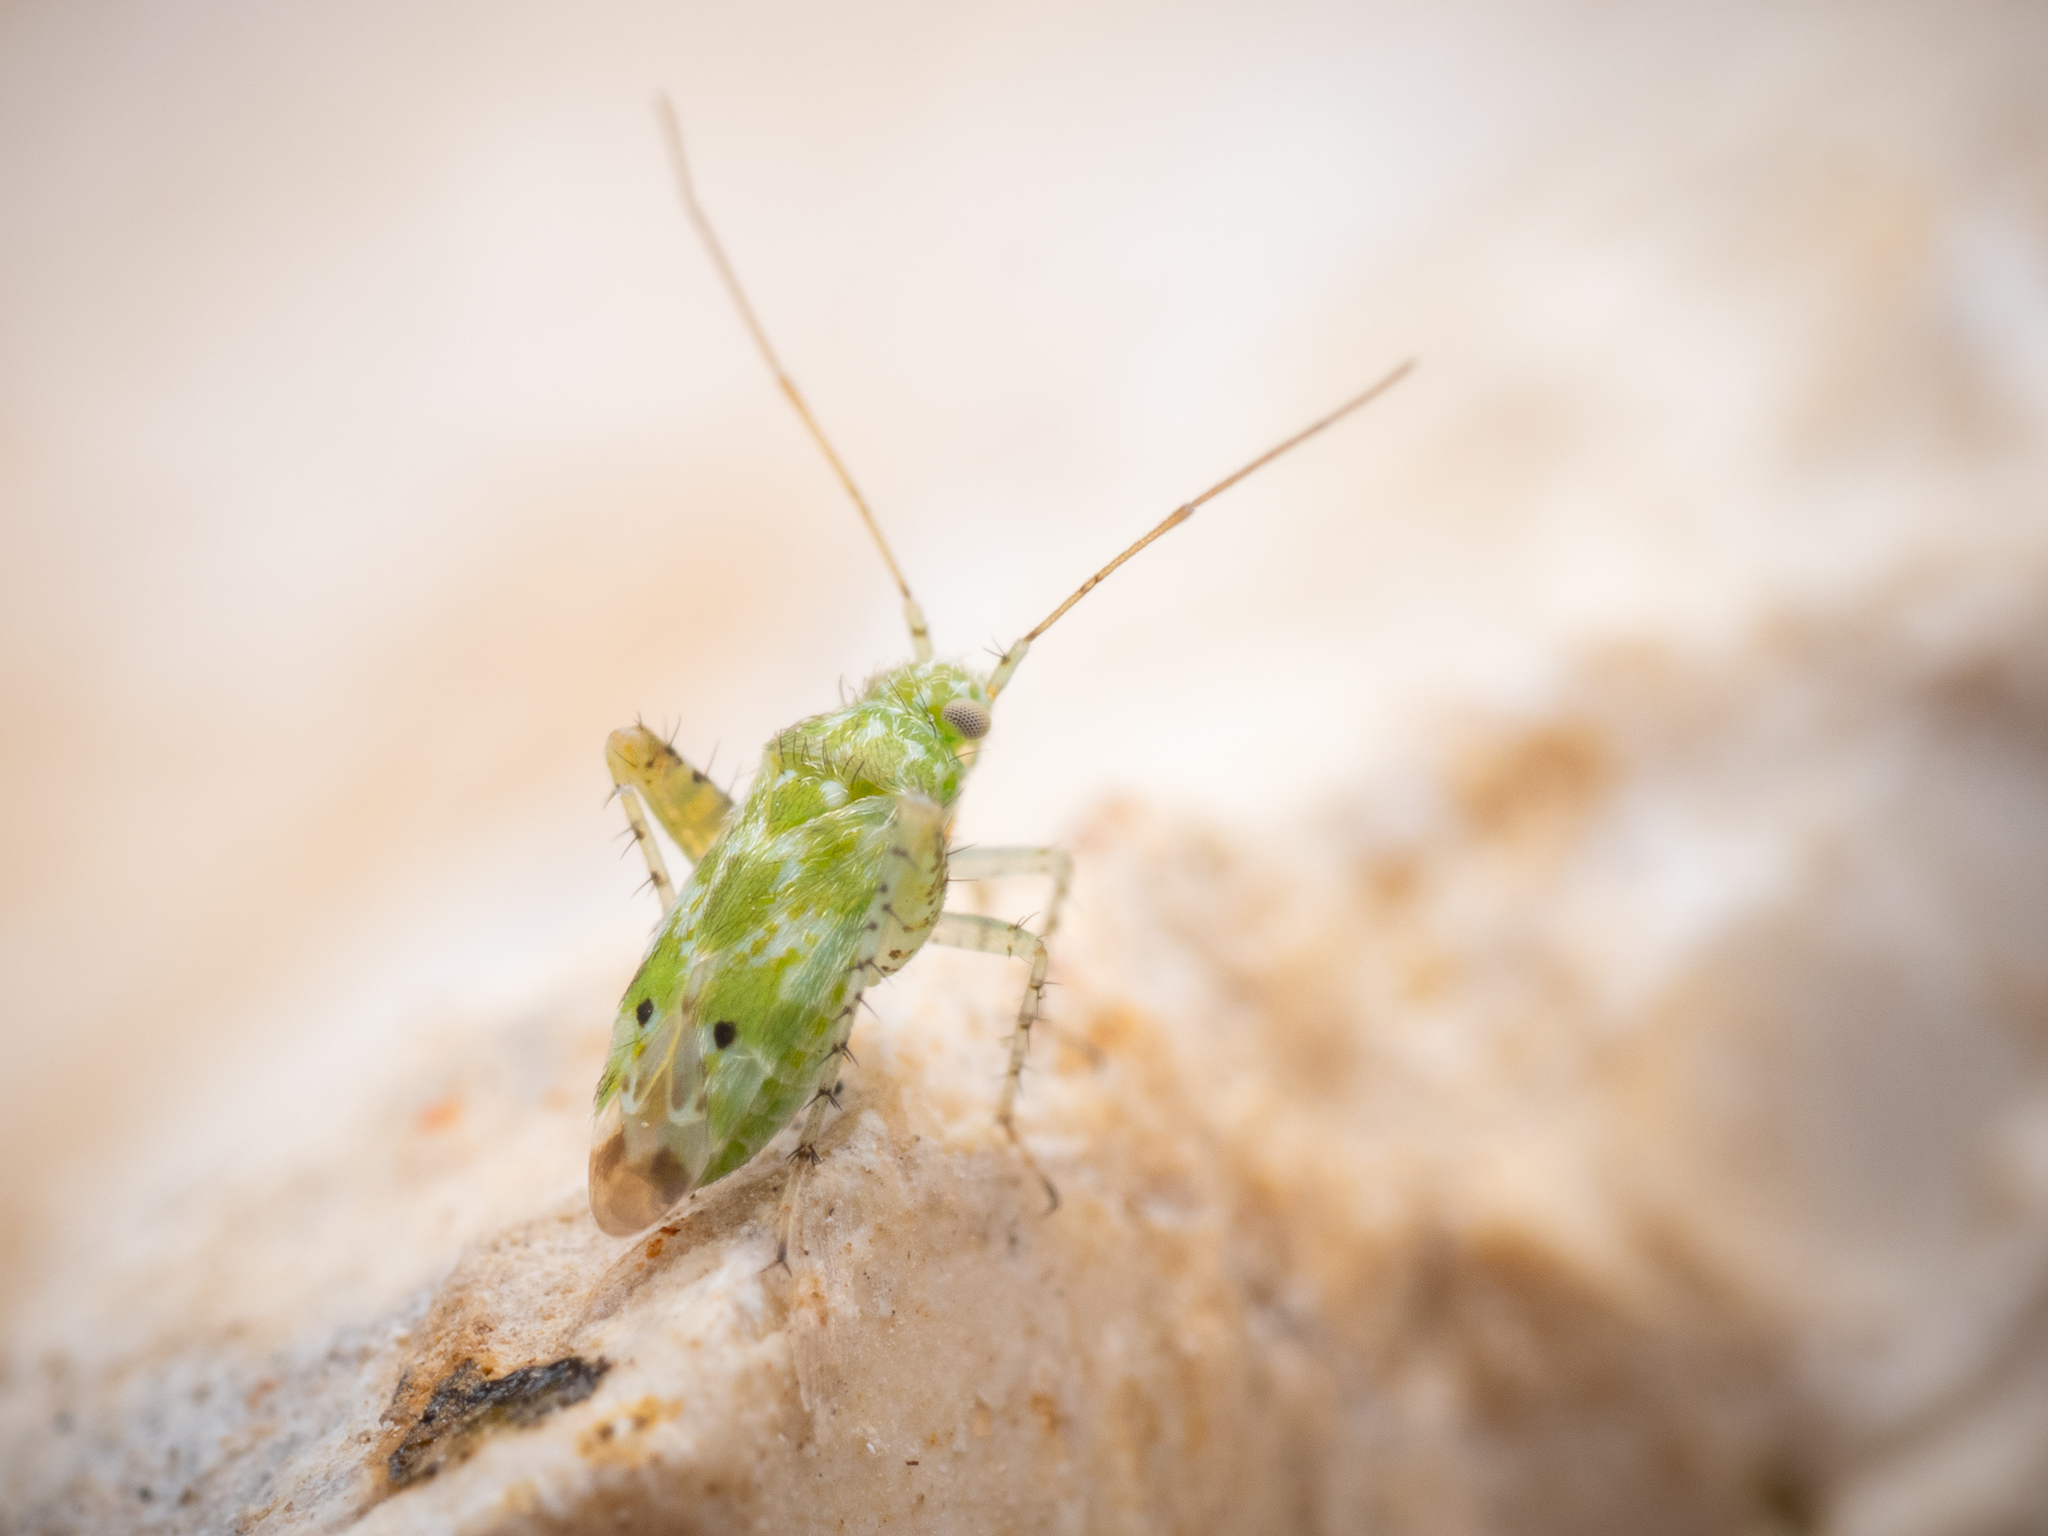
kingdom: Animalia
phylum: Arthropoda
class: Insecta
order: Hemiptera
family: Miridae
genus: Camptotylus
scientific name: Camptotylus reuteri
